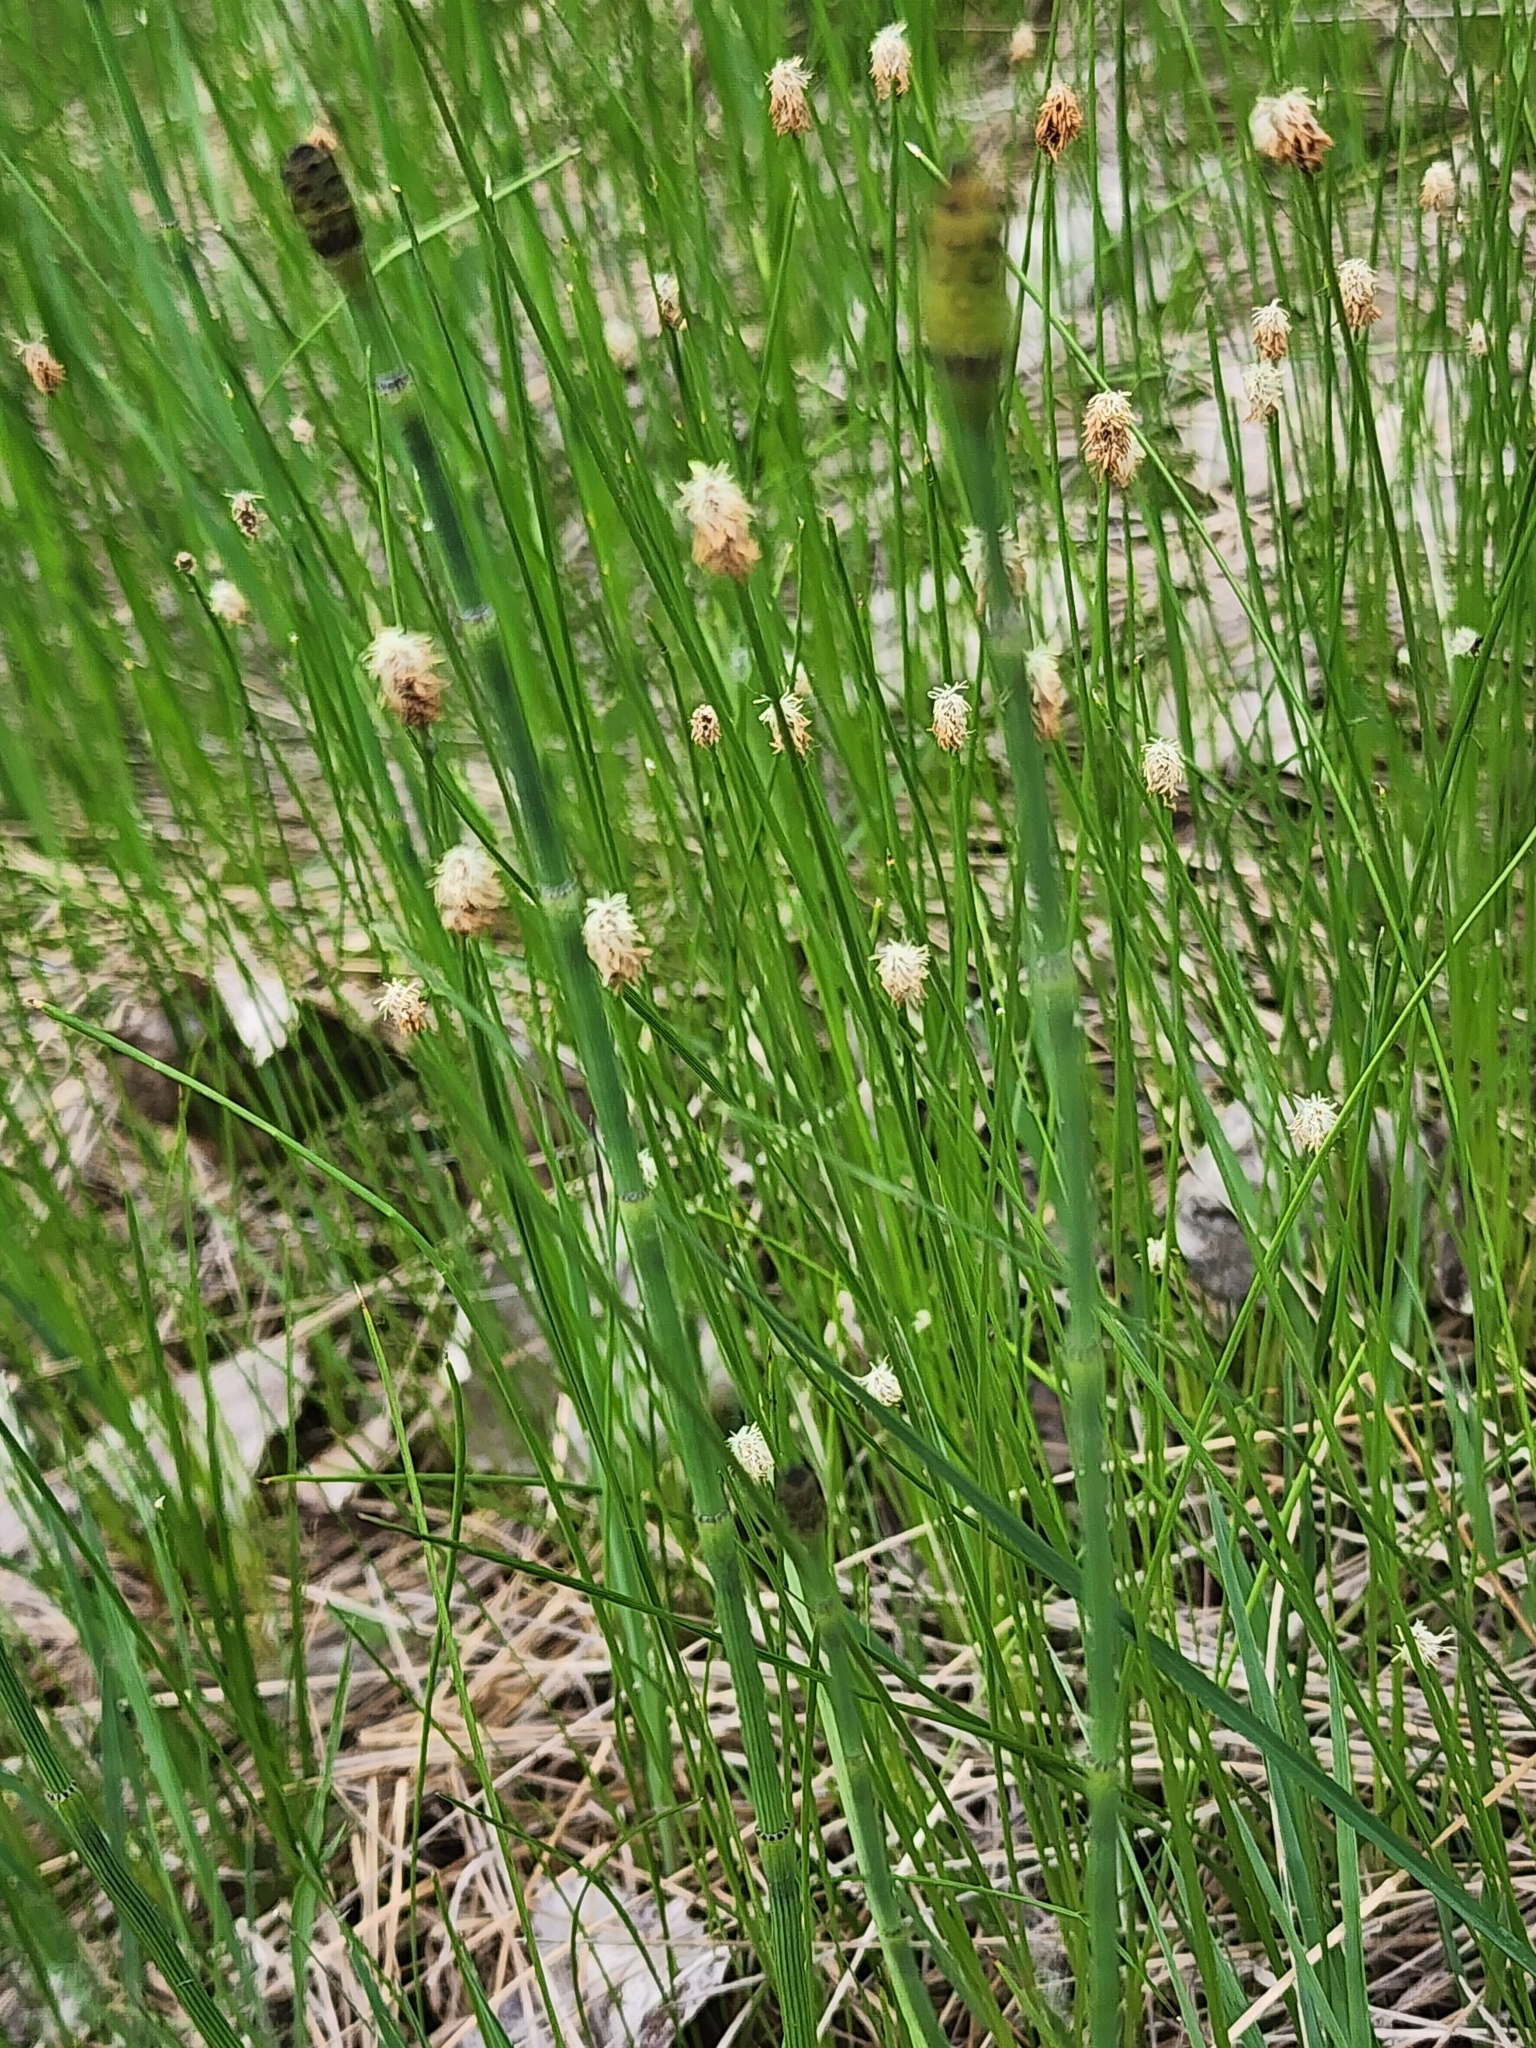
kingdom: Plantae
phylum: Tracheophyta
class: Liliopsida
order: Poales
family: Cyperaceae
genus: Eleocharis
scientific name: Eleocharis compressa
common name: Flat-stem spike-rush
